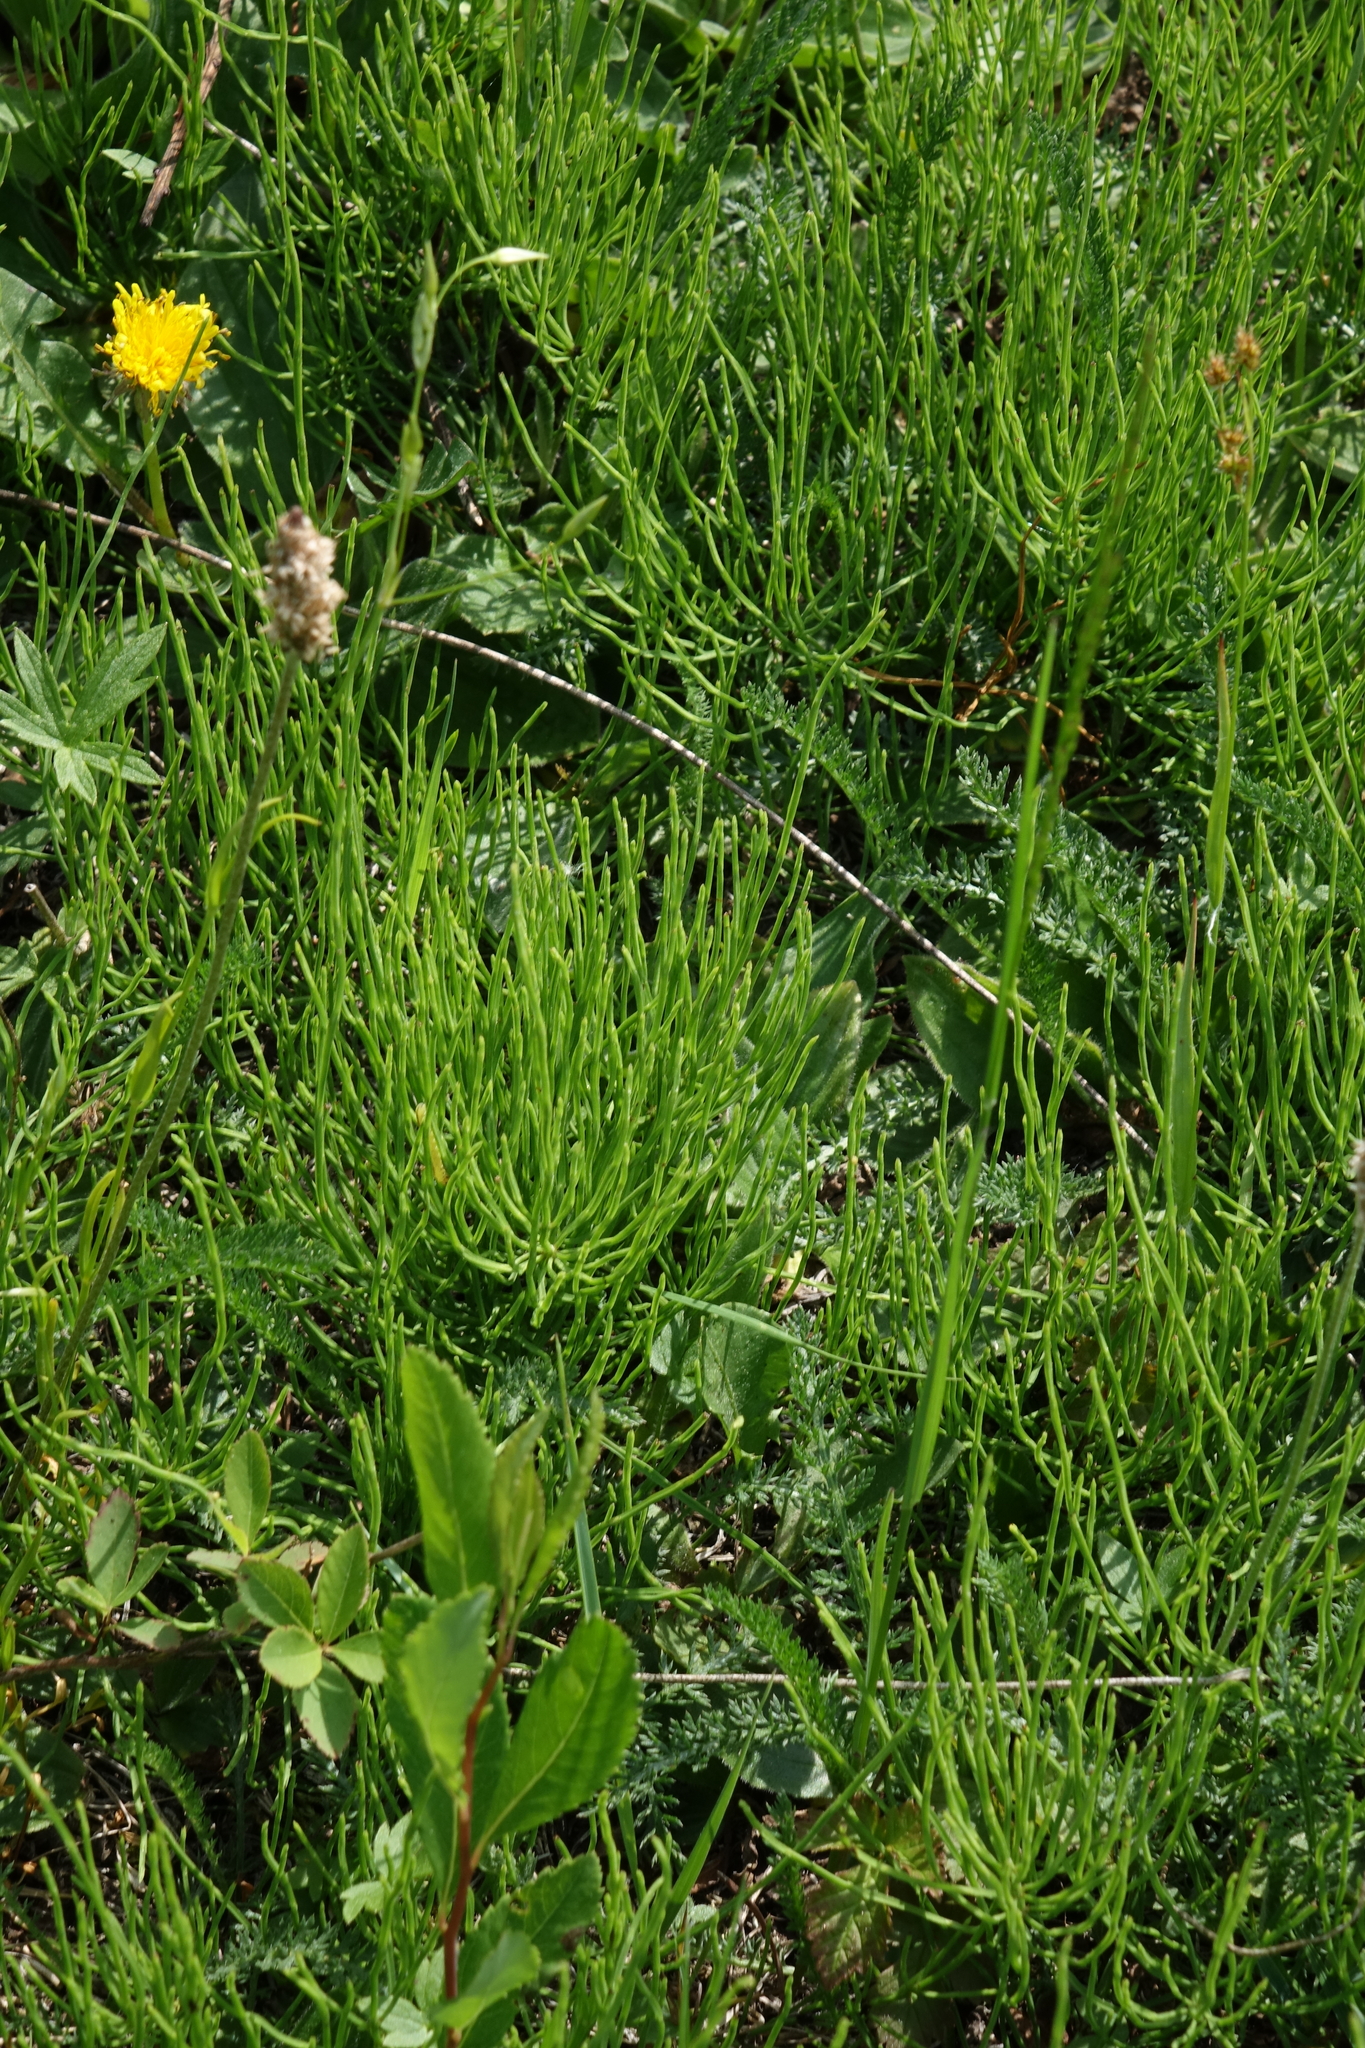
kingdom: Plantae
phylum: Tracheophyta
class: Polypodiopsida
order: Equisetales
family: Equisetaceae
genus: Equisetum
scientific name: Equisetum arvense
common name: Field horsetail
